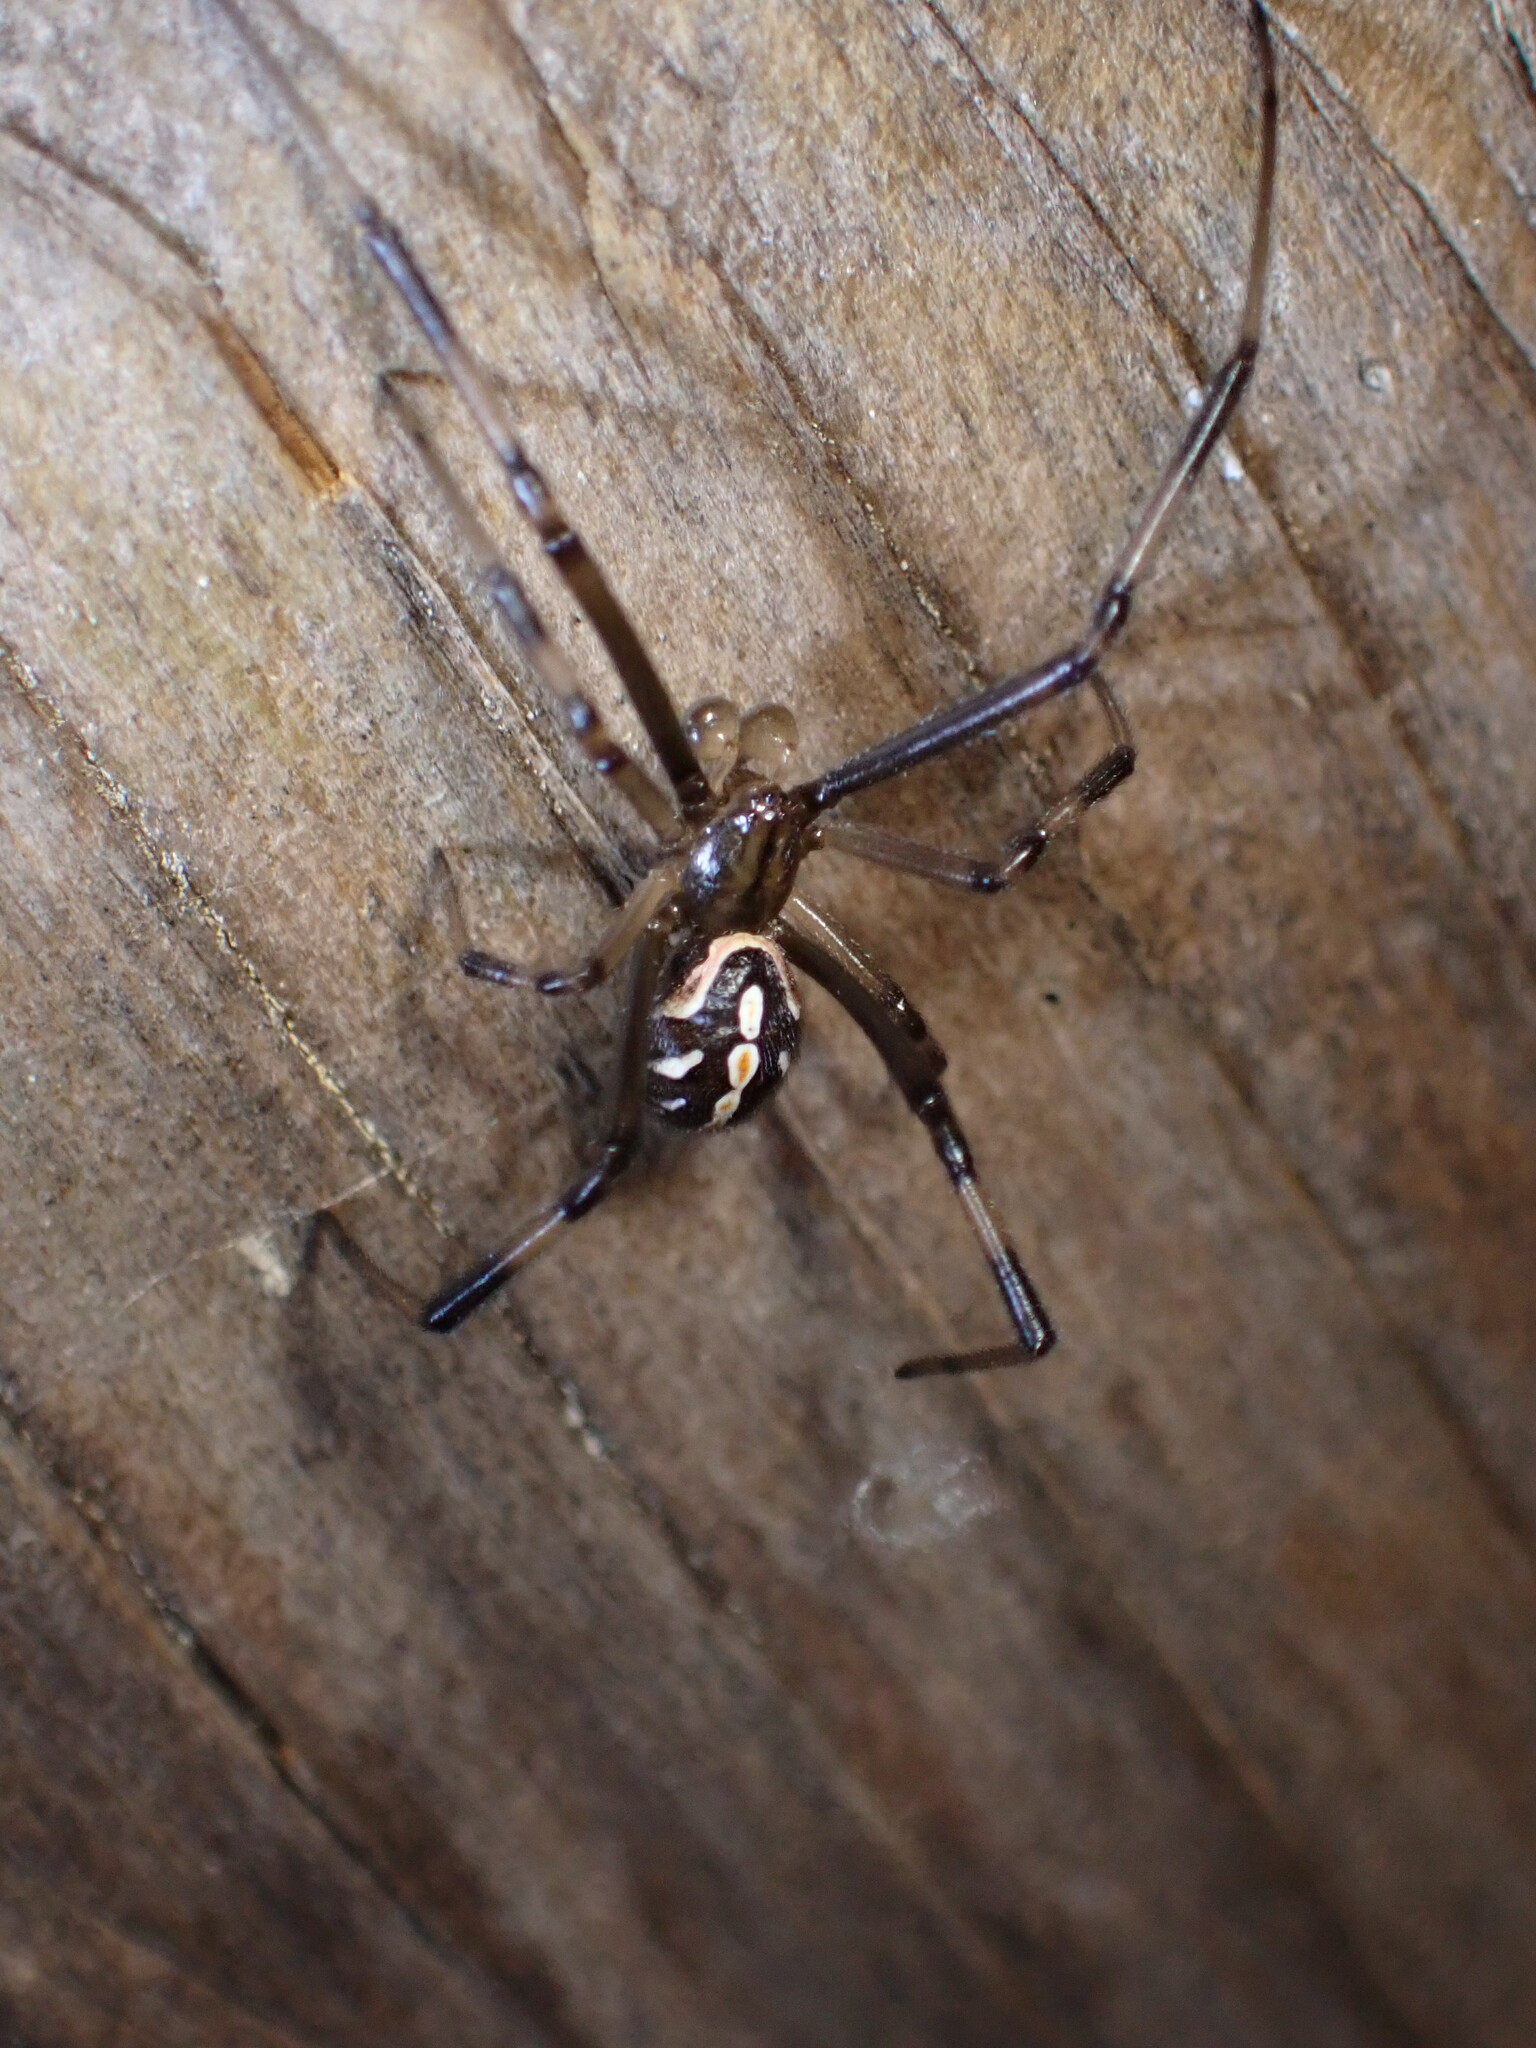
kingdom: Animalia
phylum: Arthropoda
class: Arachnida
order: Araneae
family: Theridiidae
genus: Latrodectus
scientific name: Latrodectus hesperus
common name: Western black widow
